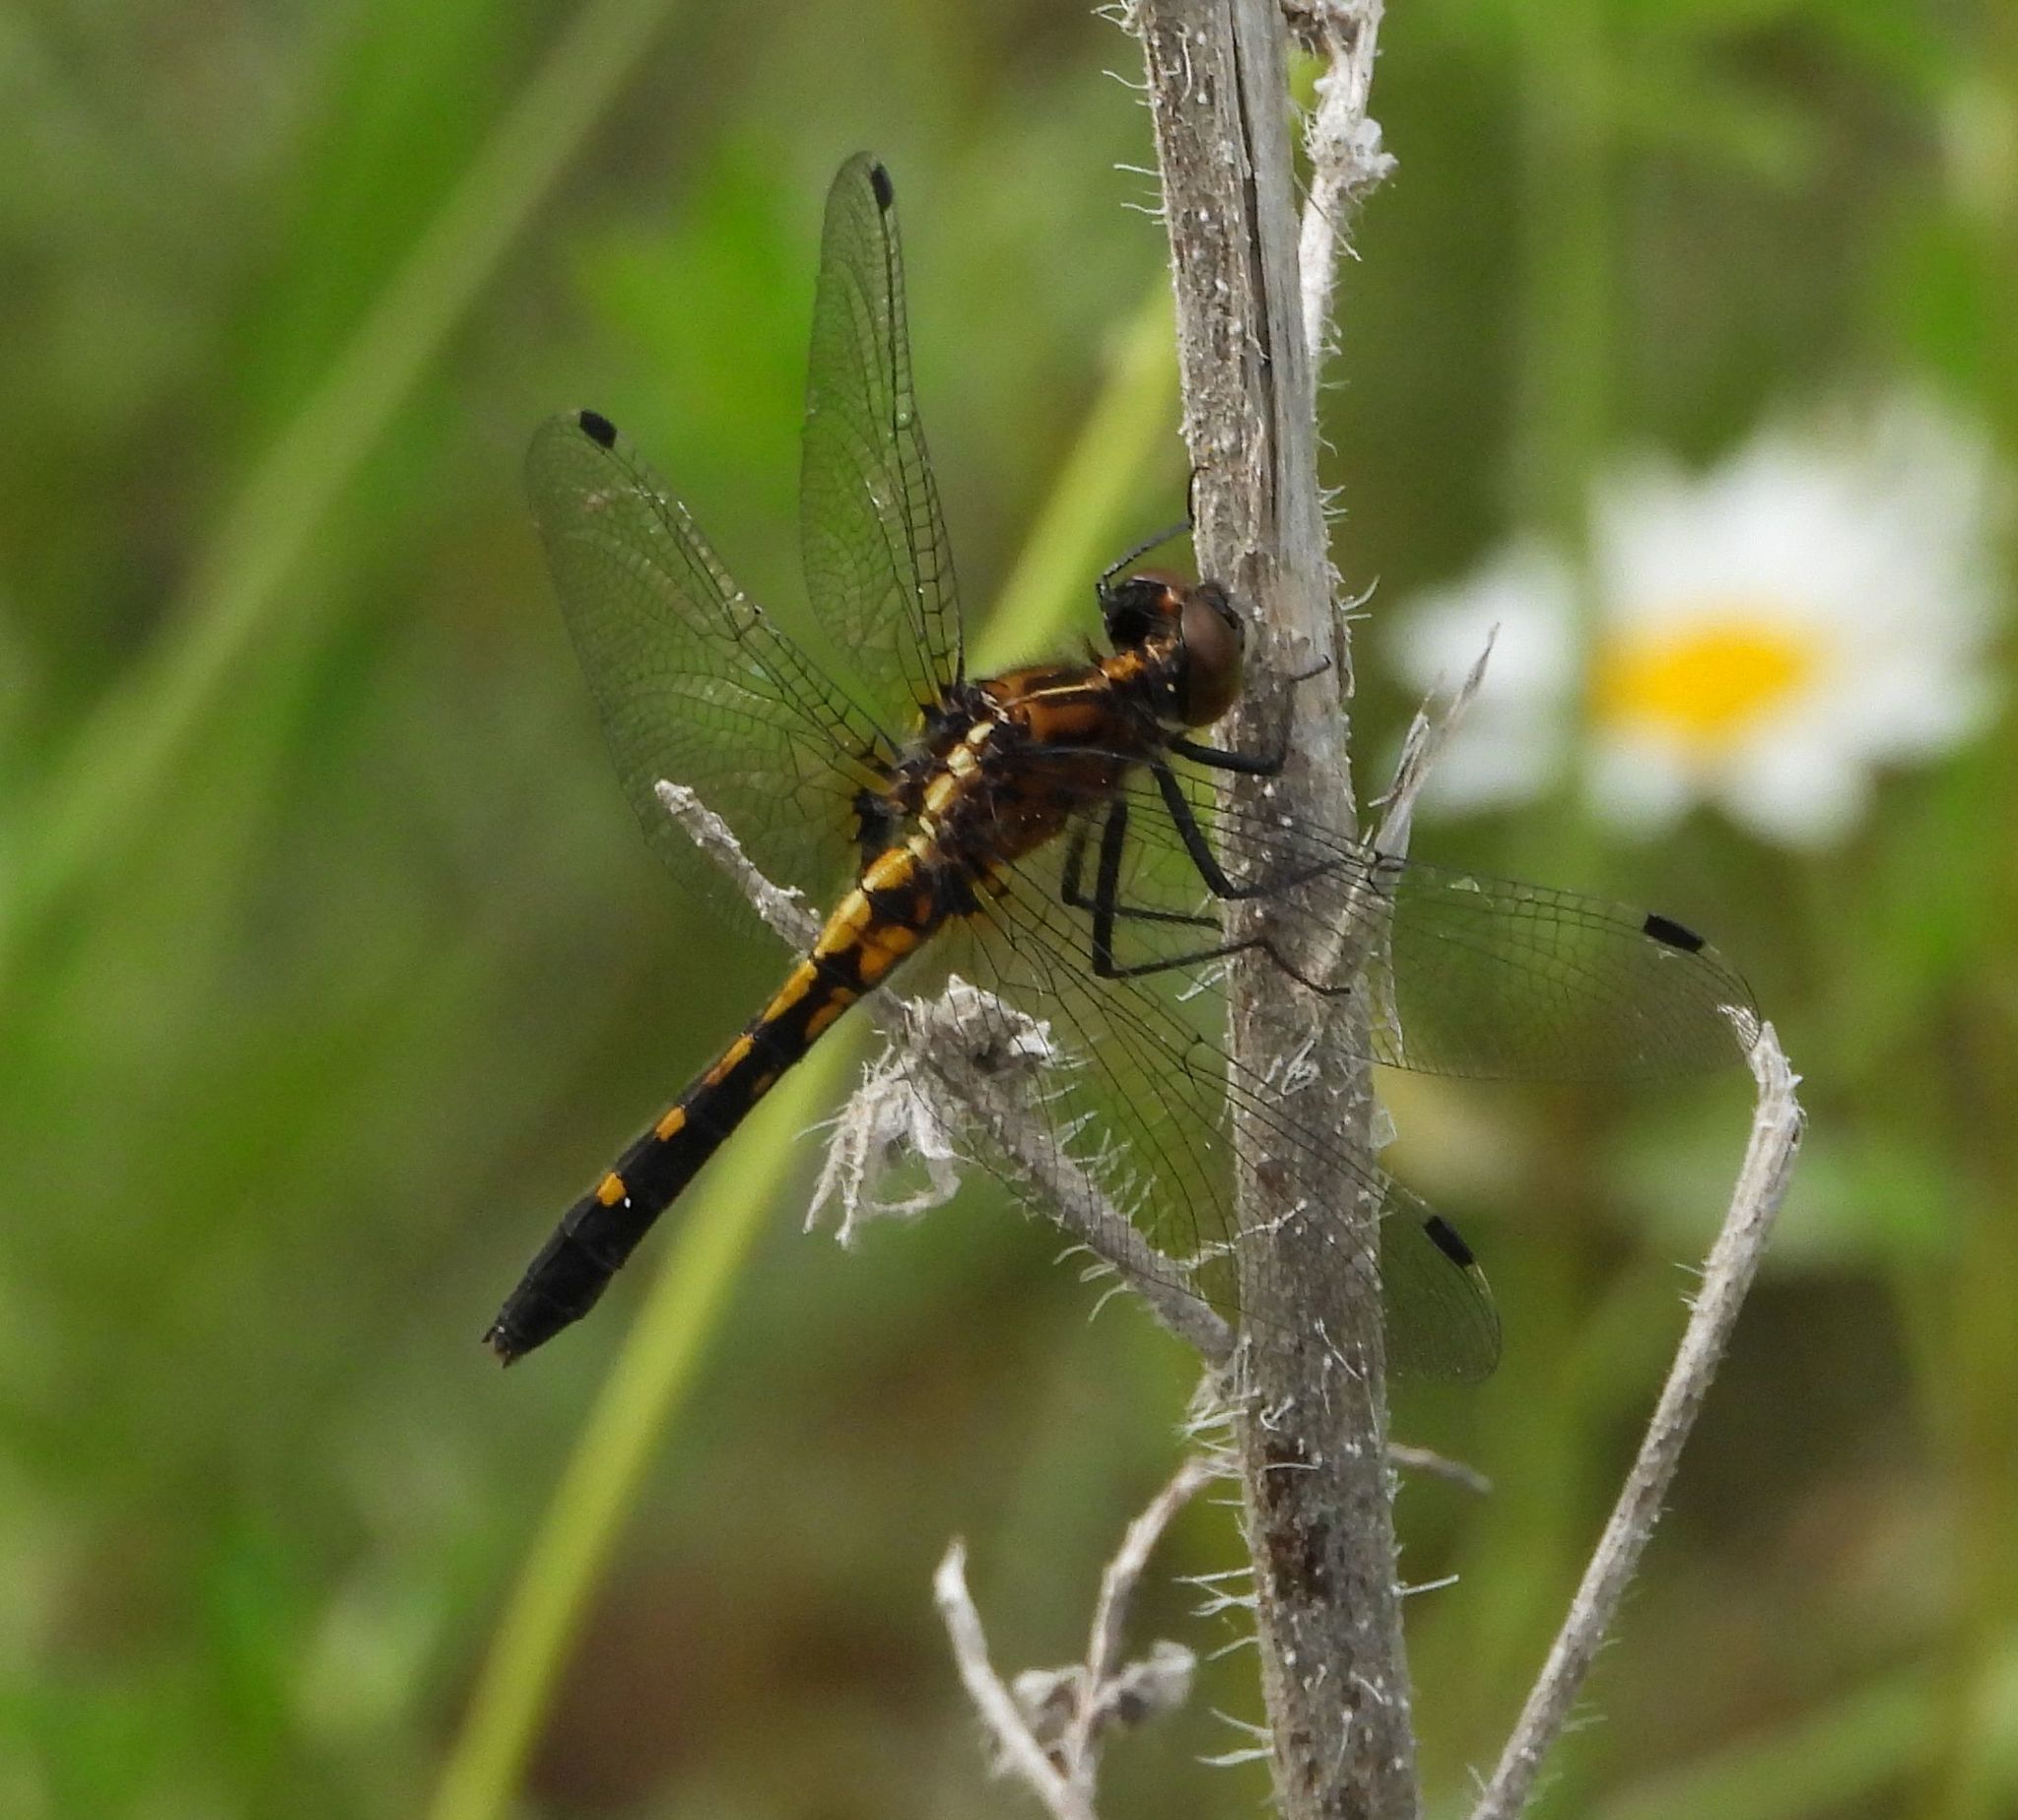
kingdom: Animalia
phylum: Arthropoda
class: Insecta
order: Odonata
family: Libellulidae
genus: Leucorrhinia
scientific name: Leucorrhinia intacta
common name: Dot-tailed whiteface
